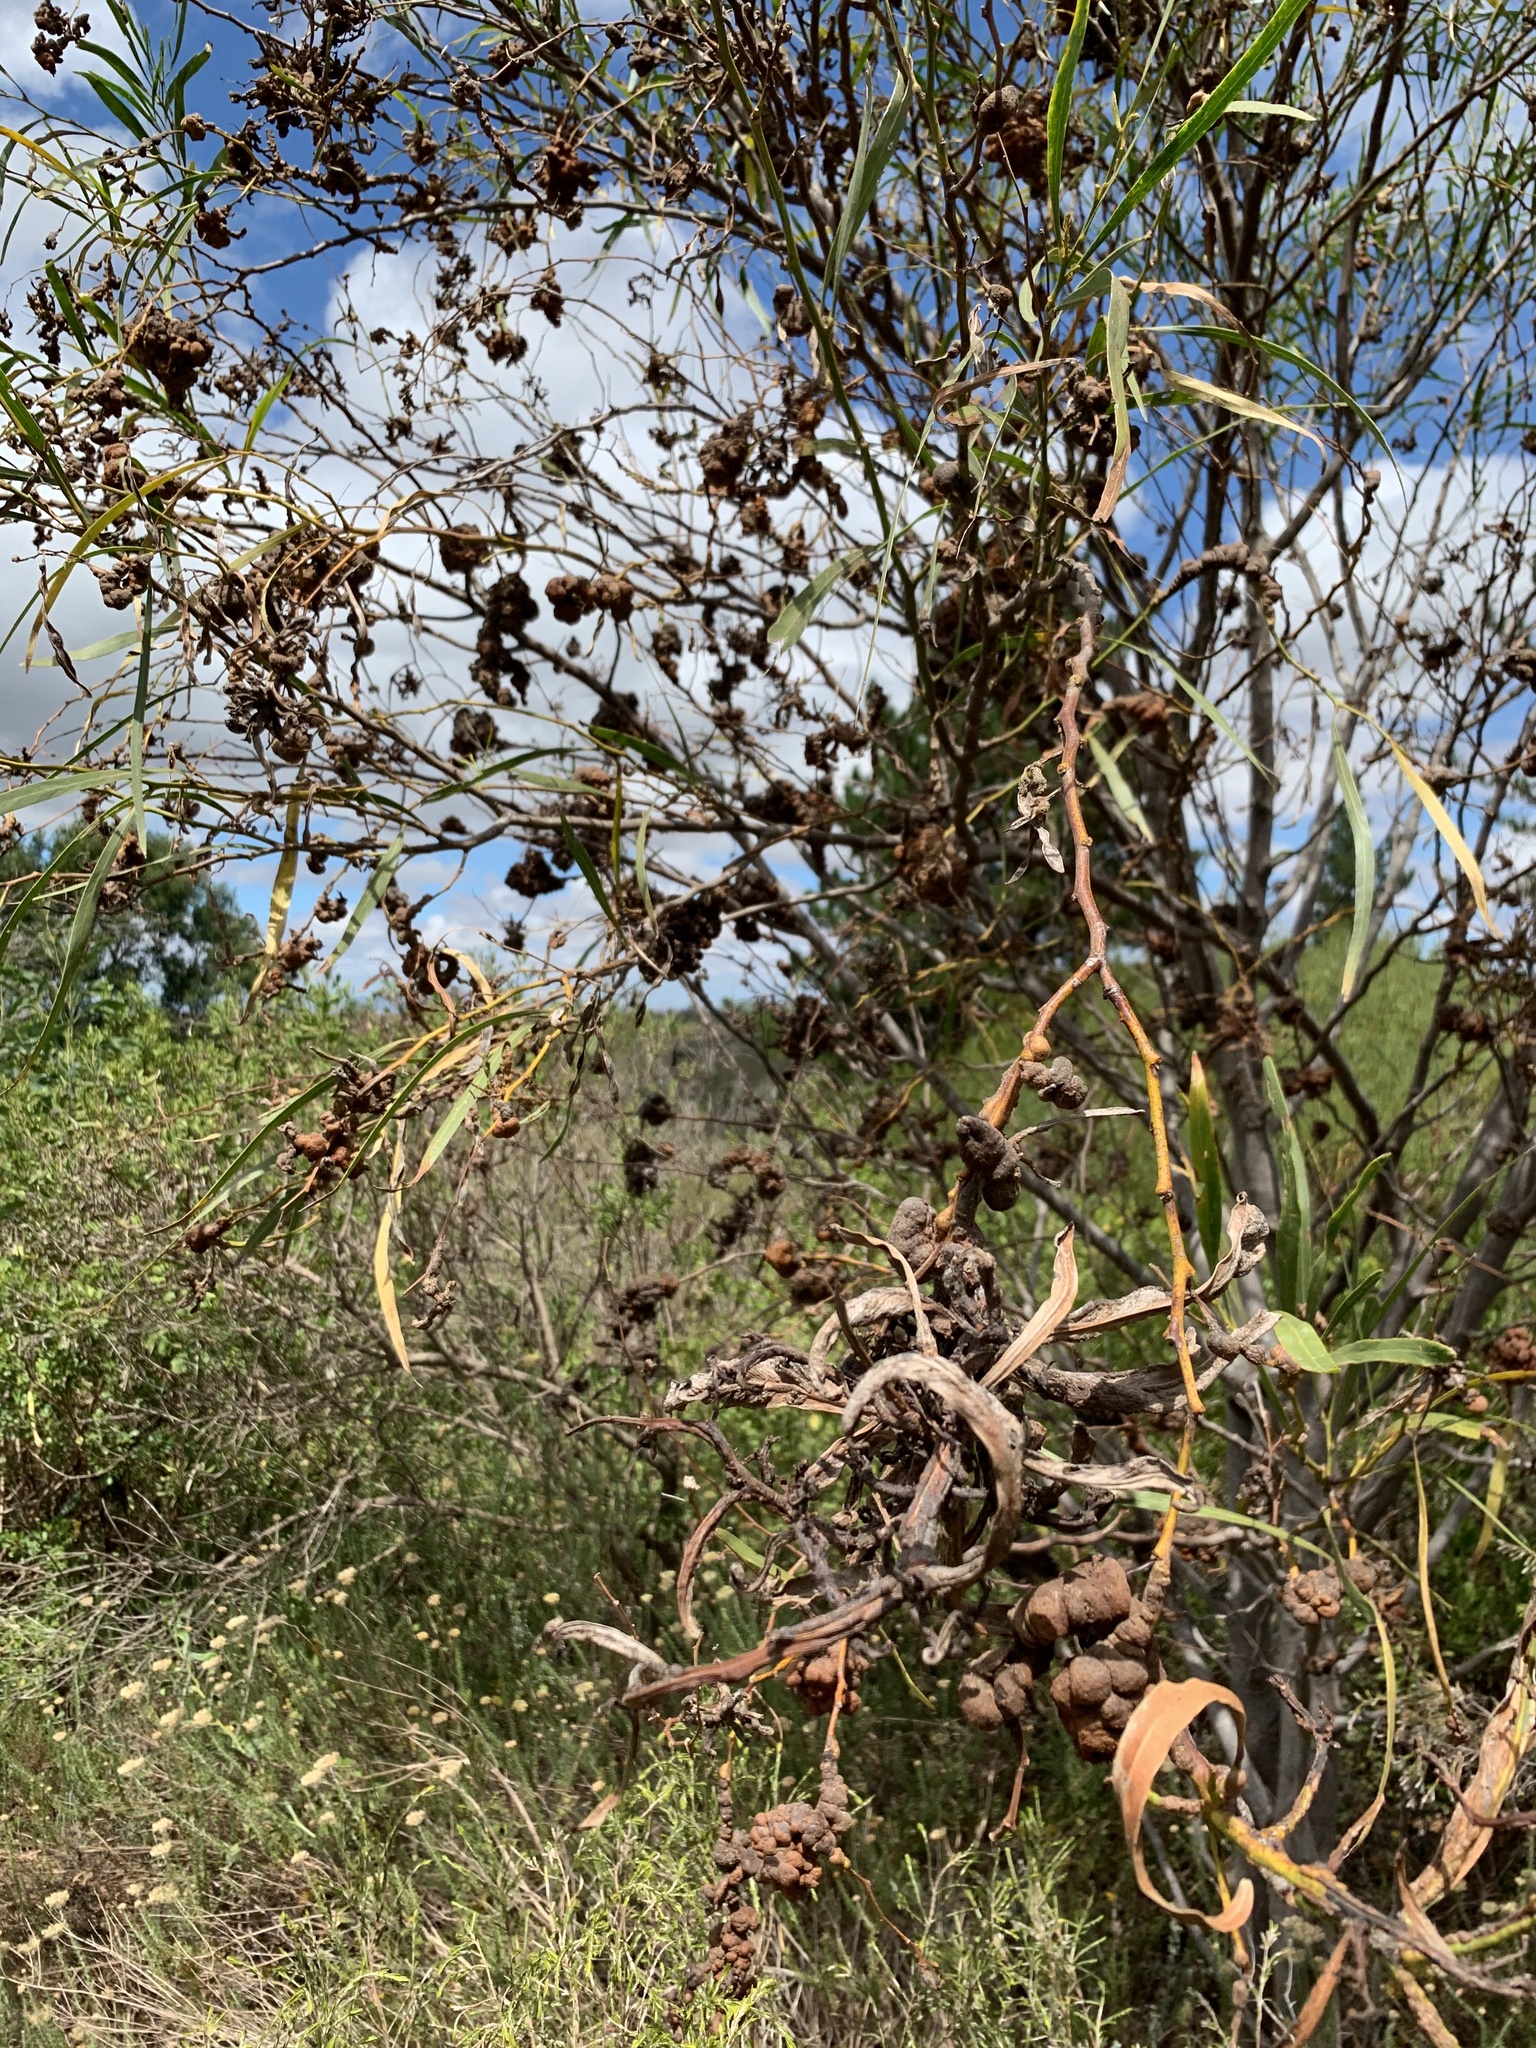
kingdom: Plantae
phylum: Tracheophyta
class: Magnoliopsida
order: Fabales
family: Fabaceae
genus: Acacia
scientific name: Acacia saligna
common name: Orange wattle
